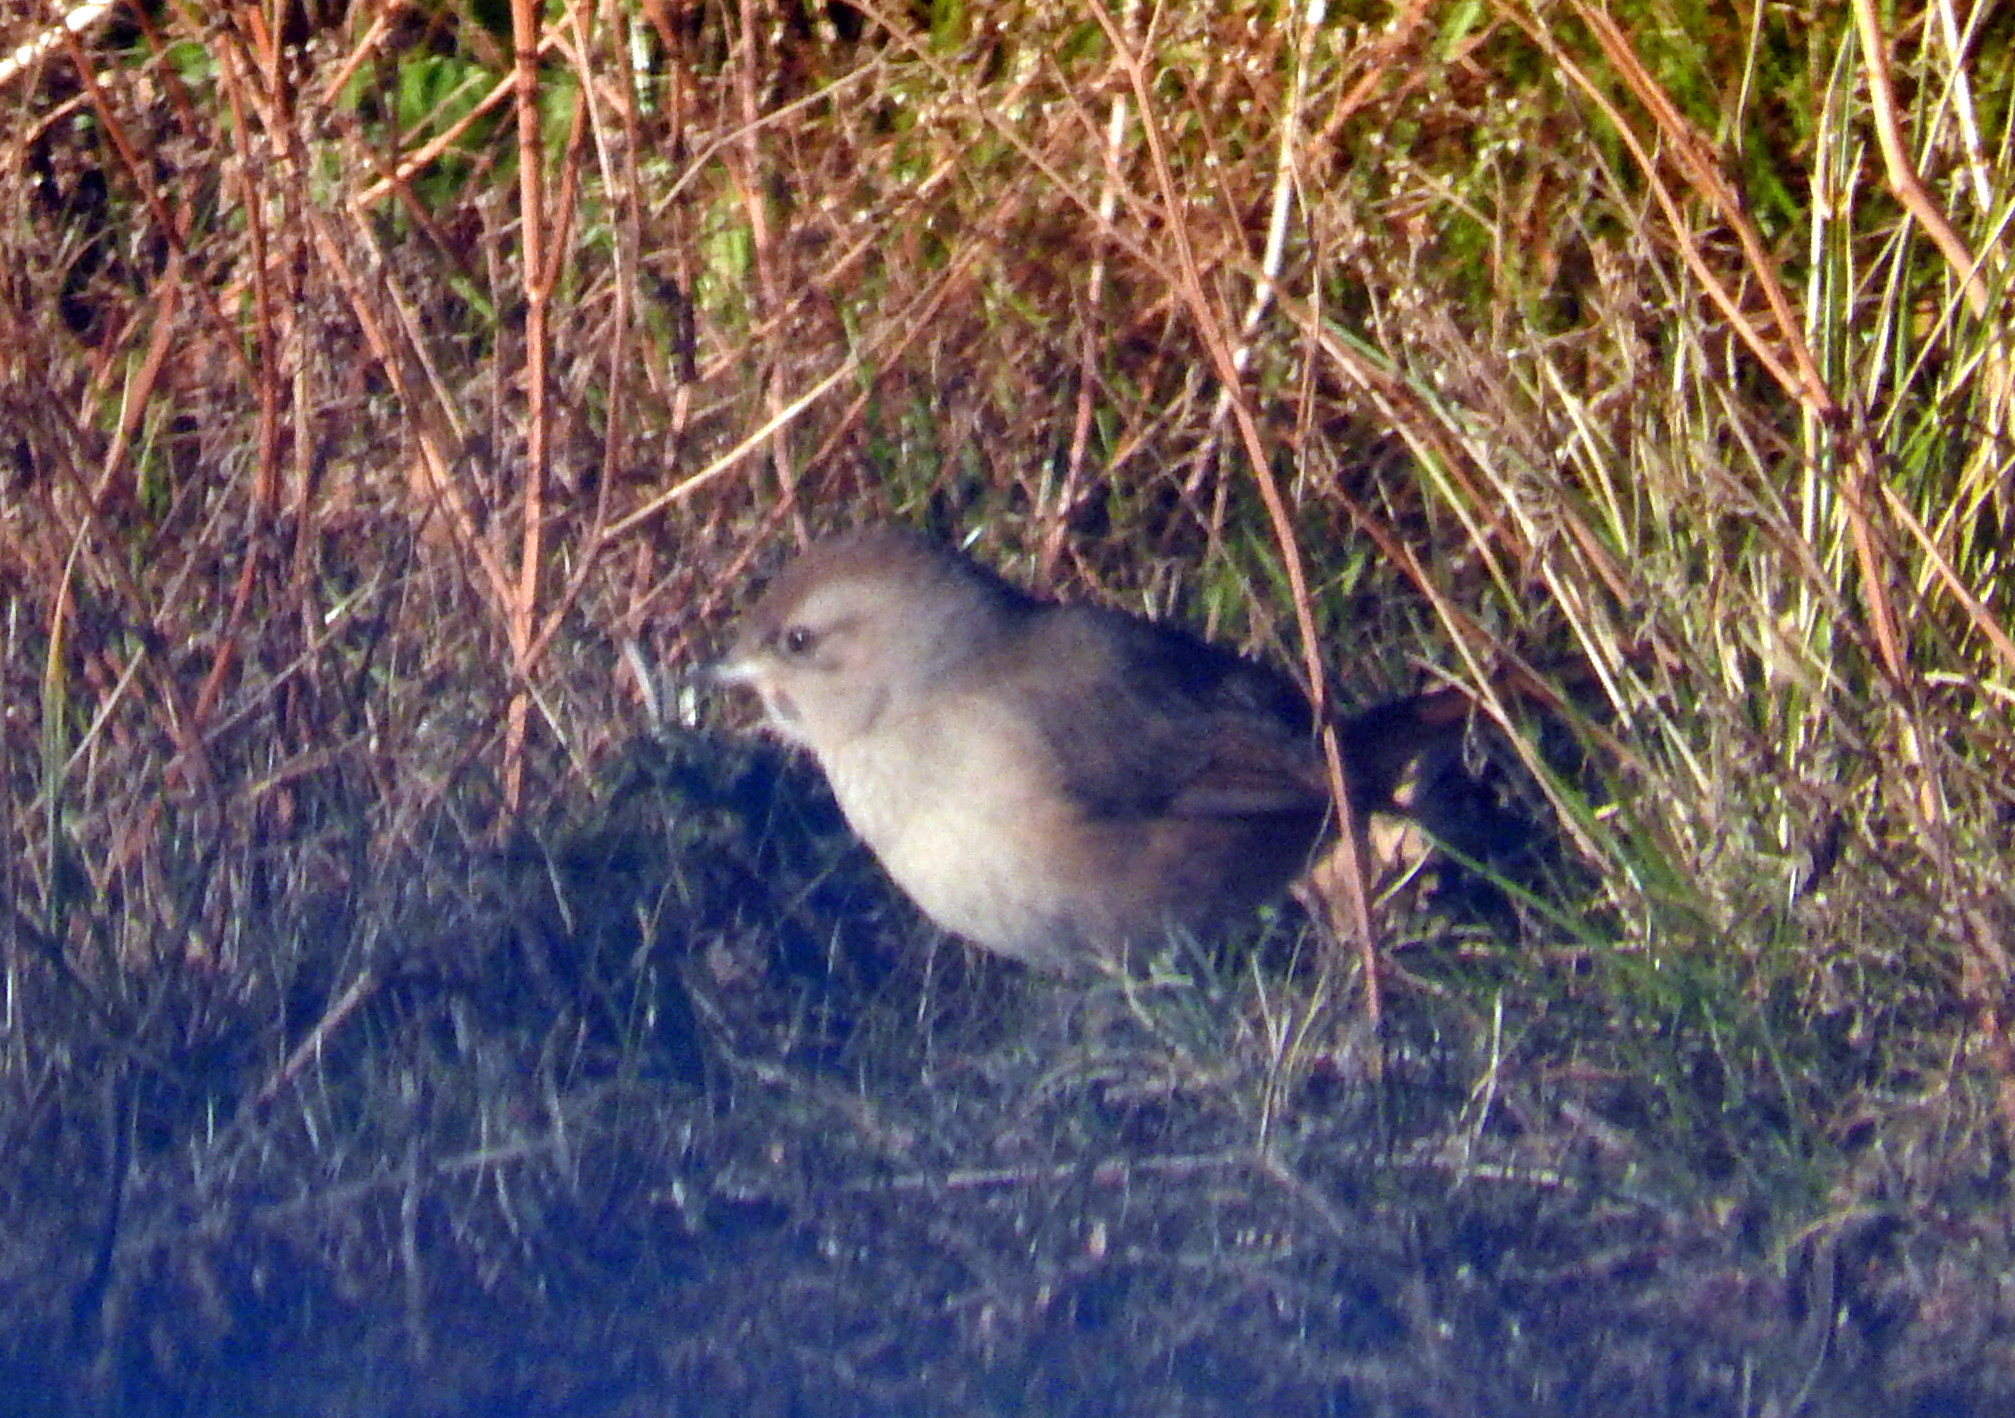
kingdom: Animalia
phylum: Chordata
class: Aves
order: Passeriformes
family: Furnariidae
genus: Asthenes
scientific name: Asthenes baeri
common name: Short-billed canastero
